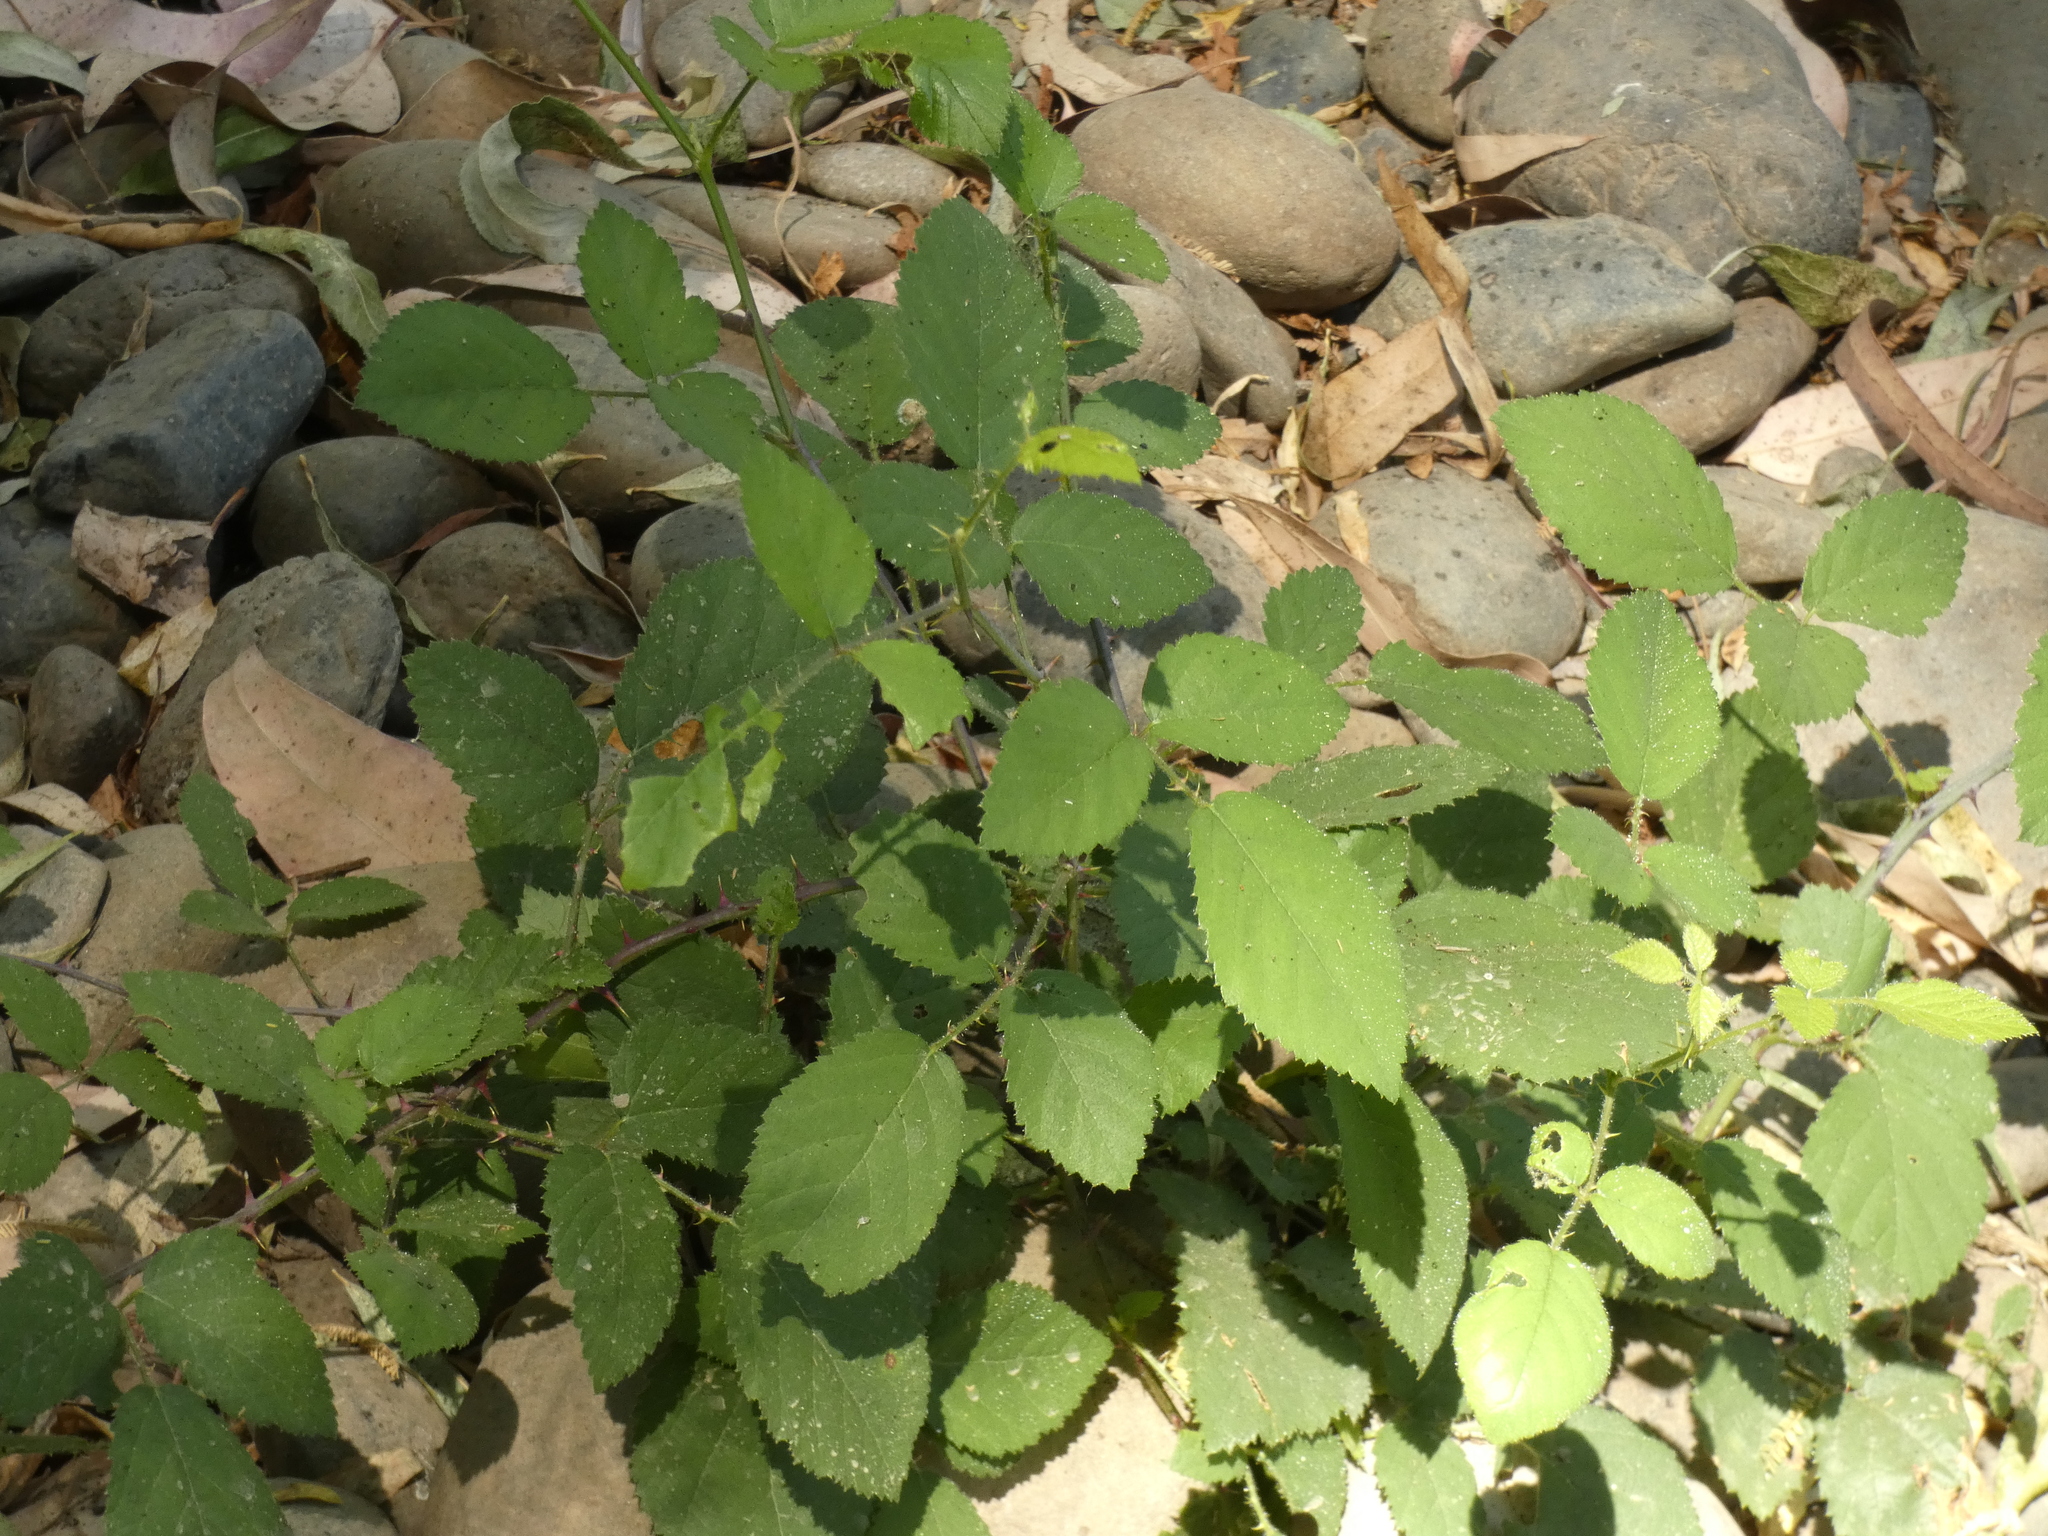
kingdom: Plantae
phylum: Tracheophyta
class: Magnoliopsida
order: Rosales
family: Rosaceae
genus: Rubus
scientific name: Rubus ulmifolius
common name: Elmleaf blackberry
